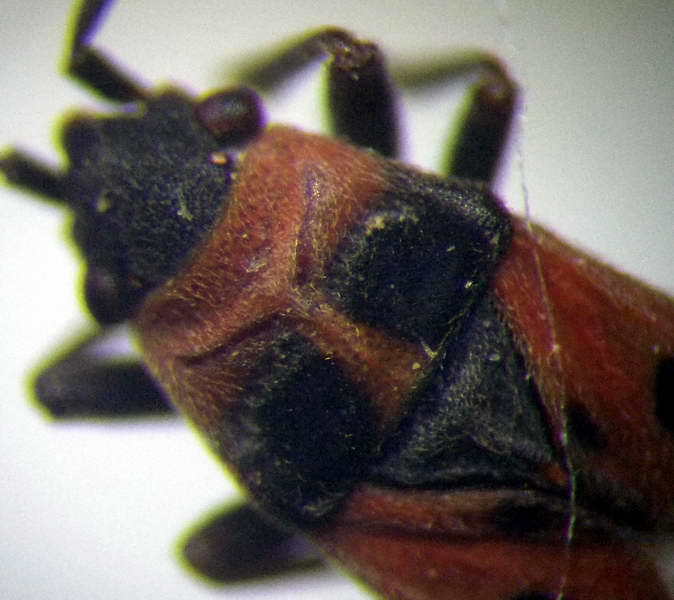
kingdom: Animalia
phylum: Arthropoda
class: Insecta
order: Hemiptera
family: Lygaeidae
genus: Horvathiolus
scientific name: Horvathiolus superbus
